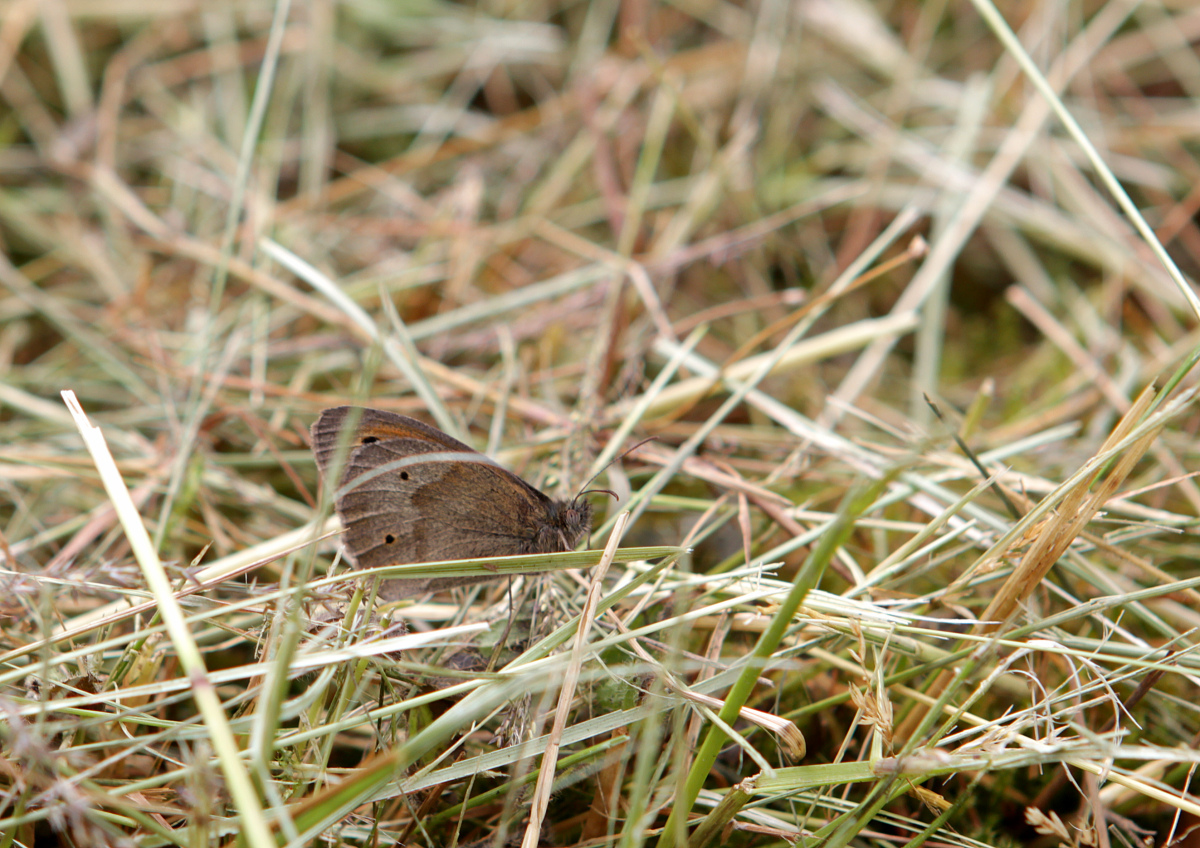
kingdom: Animalia
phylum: Arthropoda
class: Insecta
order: Lepidoptera
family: Nymphalidae
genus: Maniola
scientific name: Maniola jurtina
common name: Meadow brown
